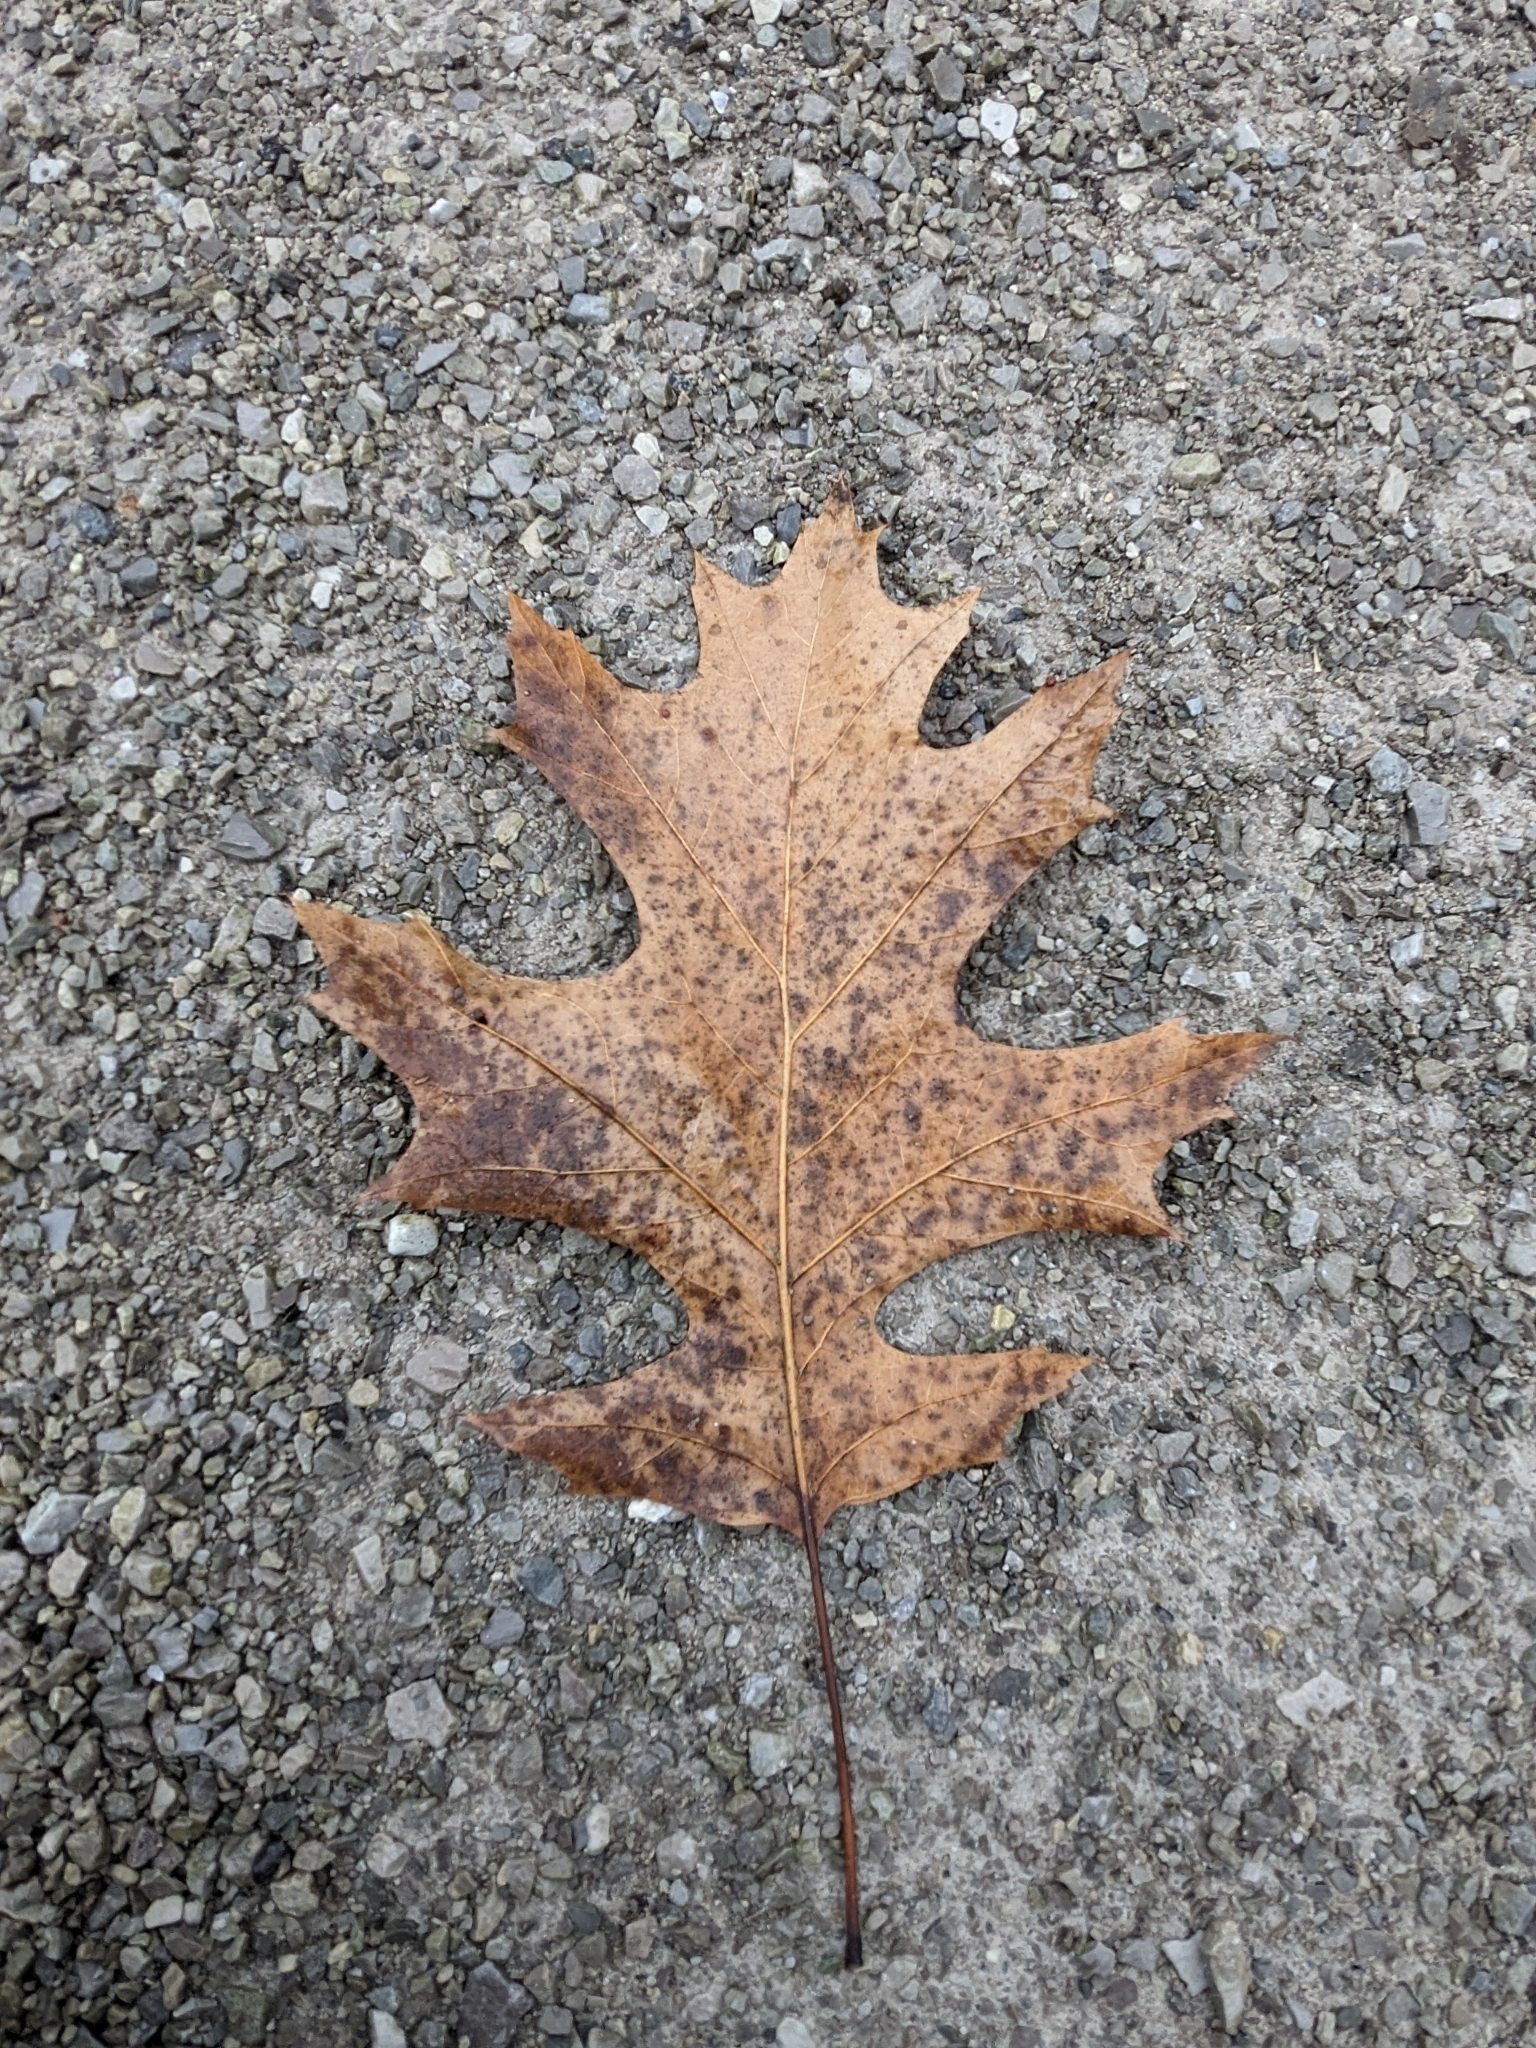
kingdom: Plantae
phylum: Tracheophyta
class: Magnoliopsida
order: Fagales
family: Fagaceae
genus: Quercus
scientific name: Quercus rubra
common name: Red oak
